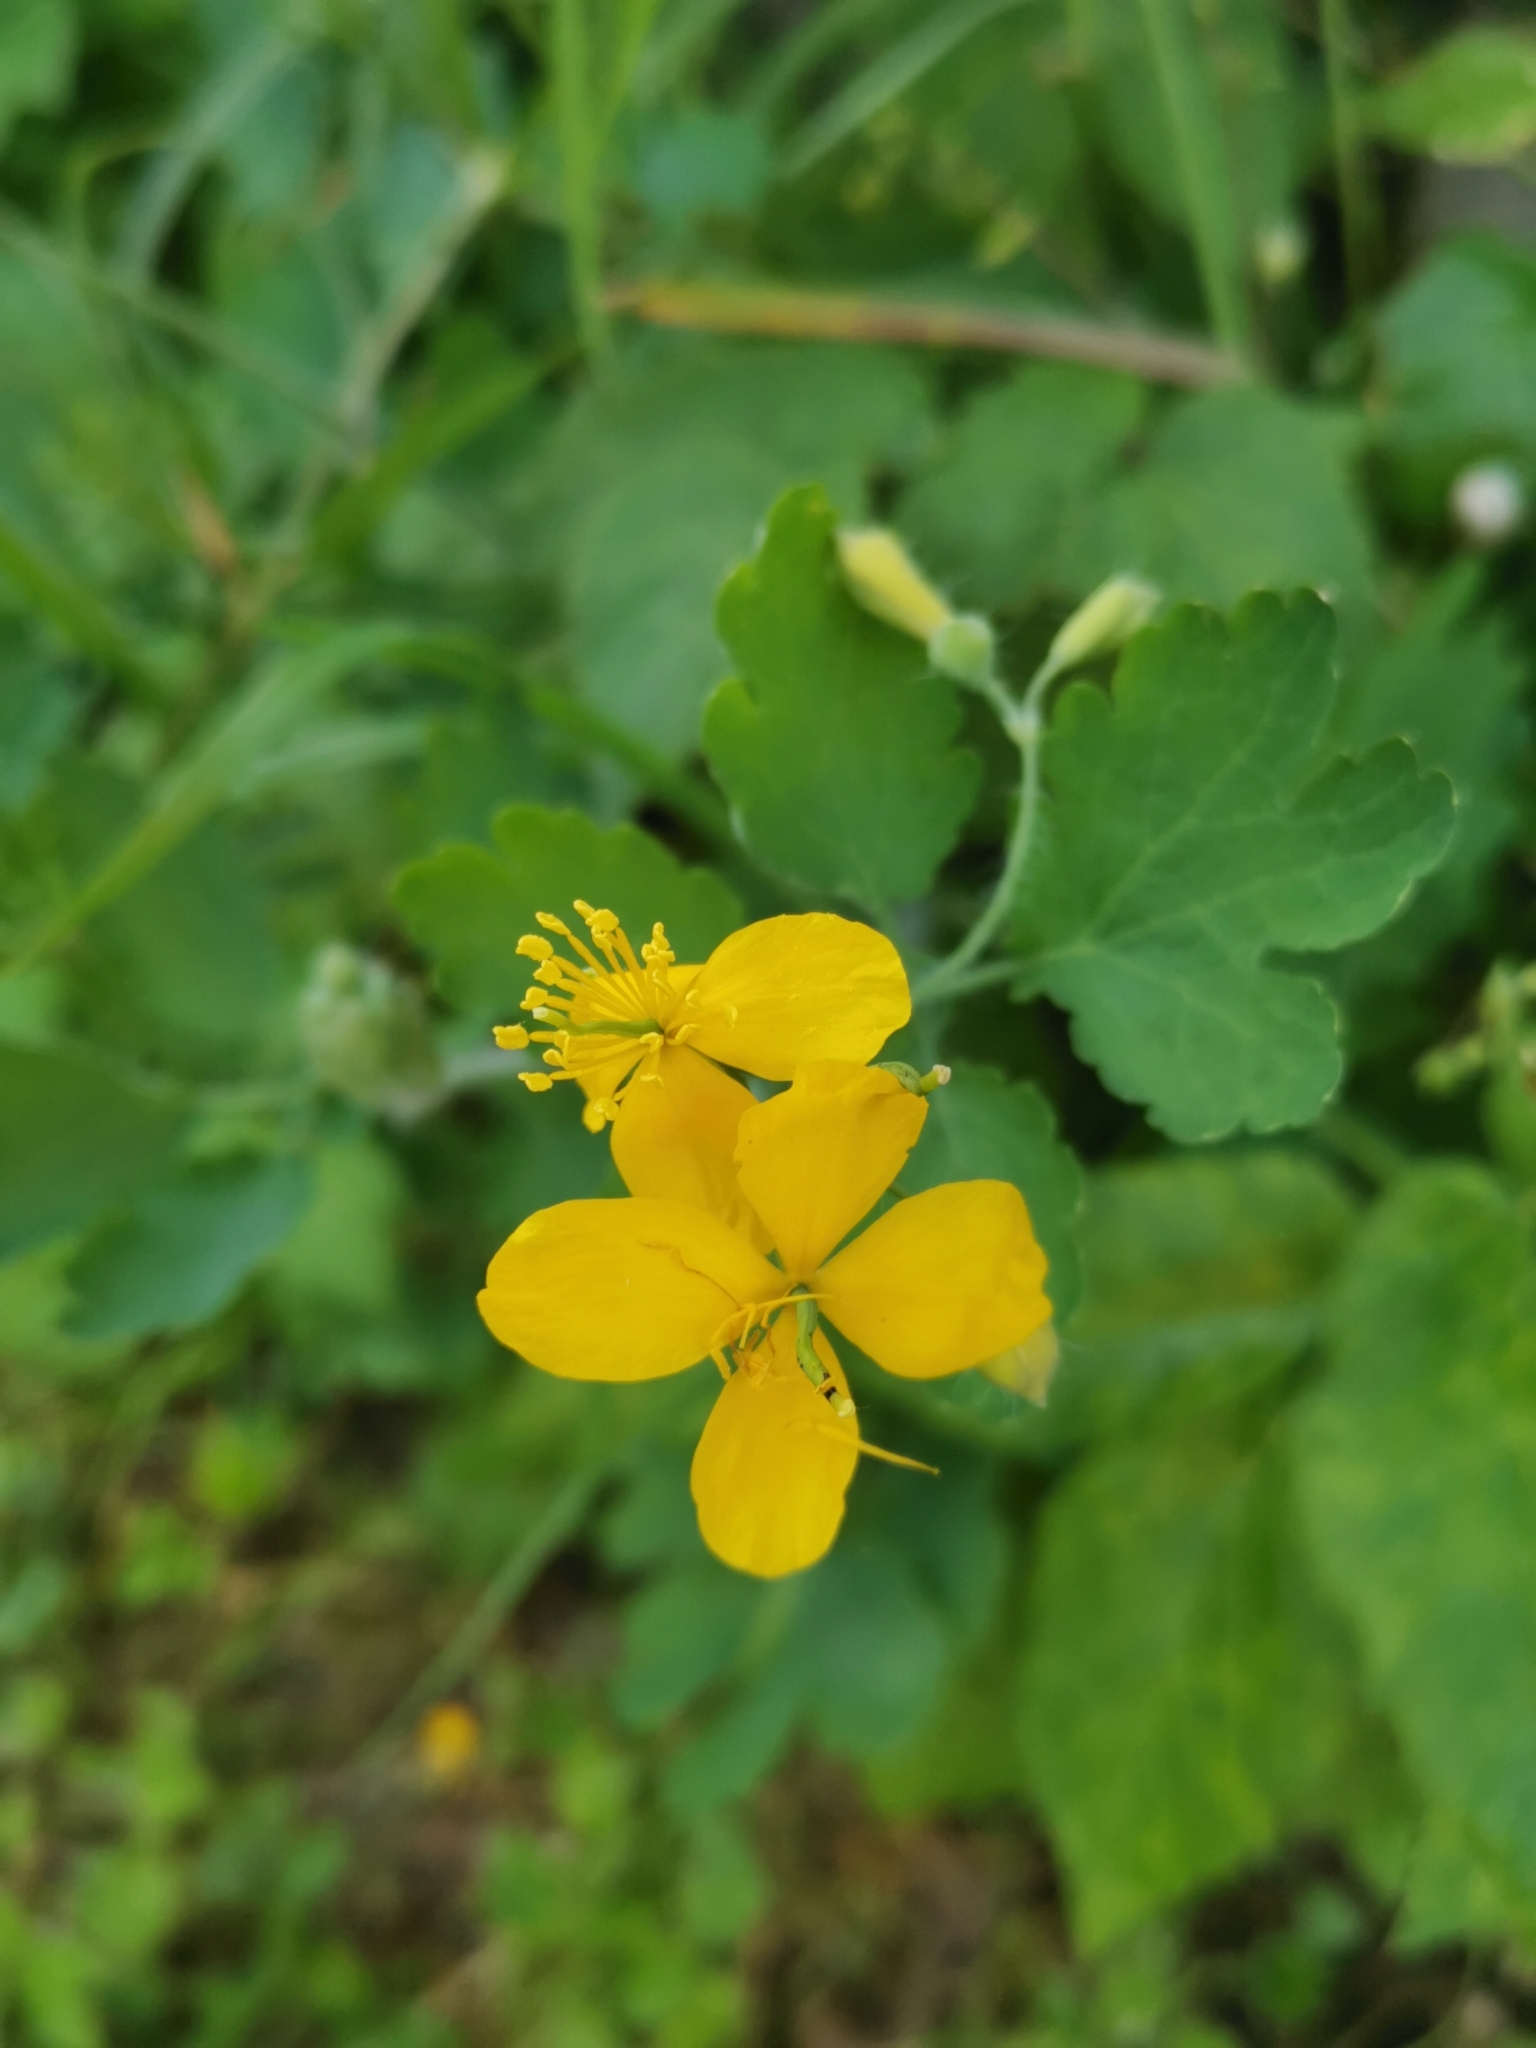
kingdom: Plantae
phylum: Tracheophyta
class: Magnoliopsida
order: Ranunculales
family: Papaveraceae
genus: Chelidonium
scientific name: Chelidonium majus
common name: Greater celandine
